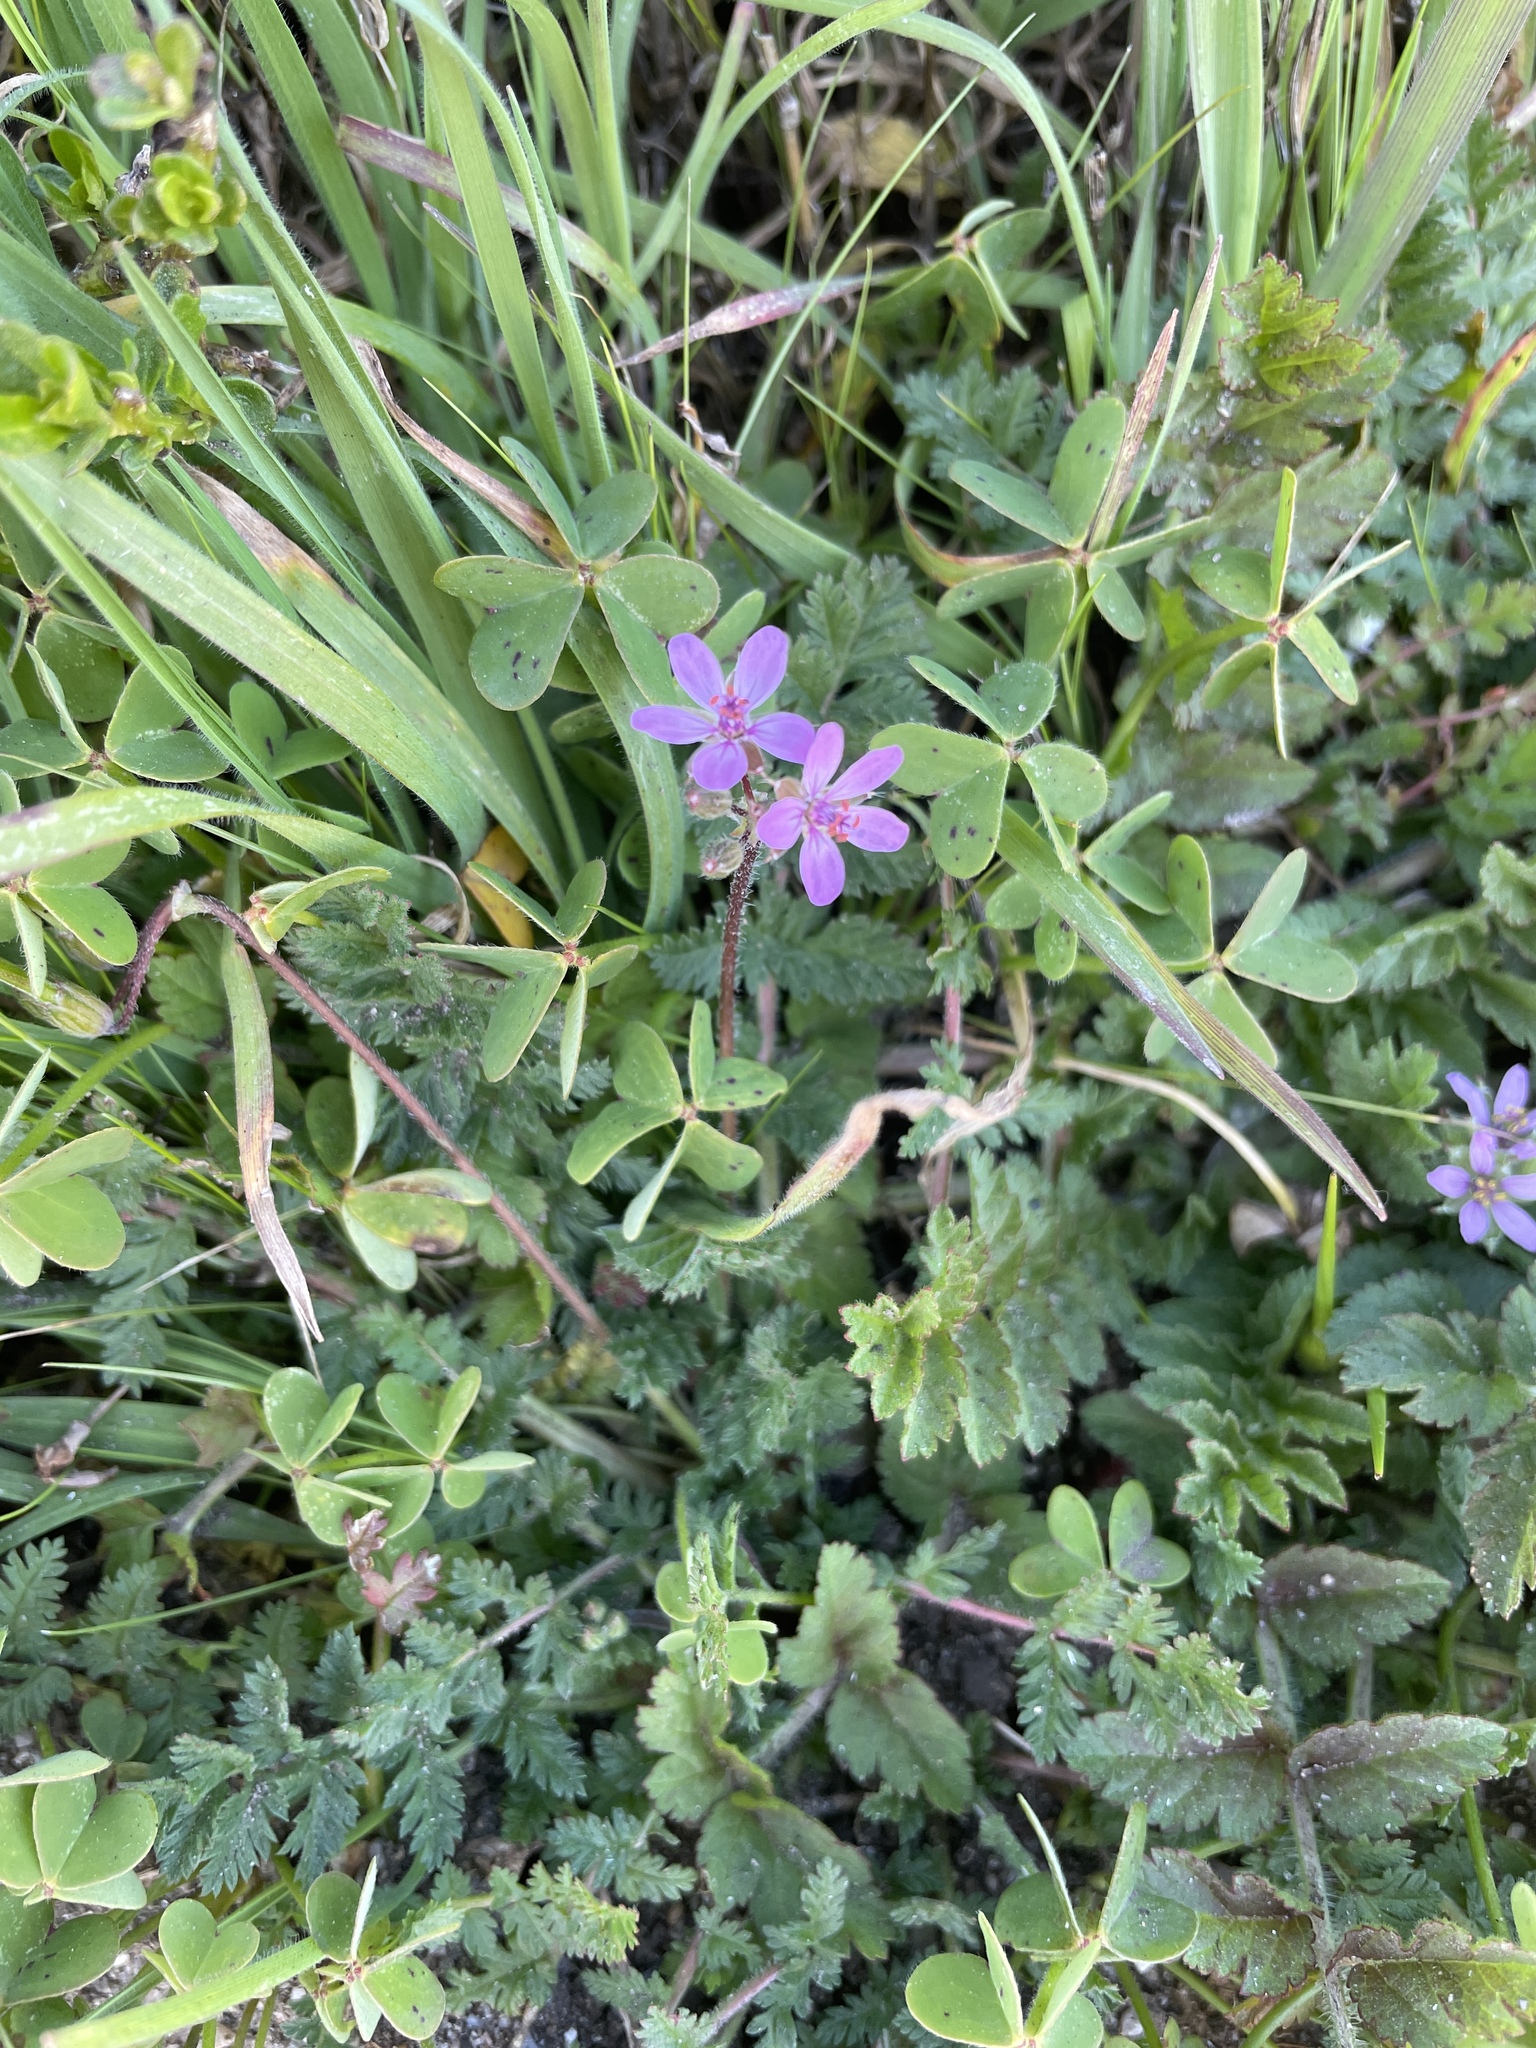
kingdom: Plantae
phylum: Tracheophyta
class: Magnoliopsida
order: Geraniales
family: Geraniaceae
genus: Erodium
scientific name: Erodium cicutarium
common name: Common stork's-bill
